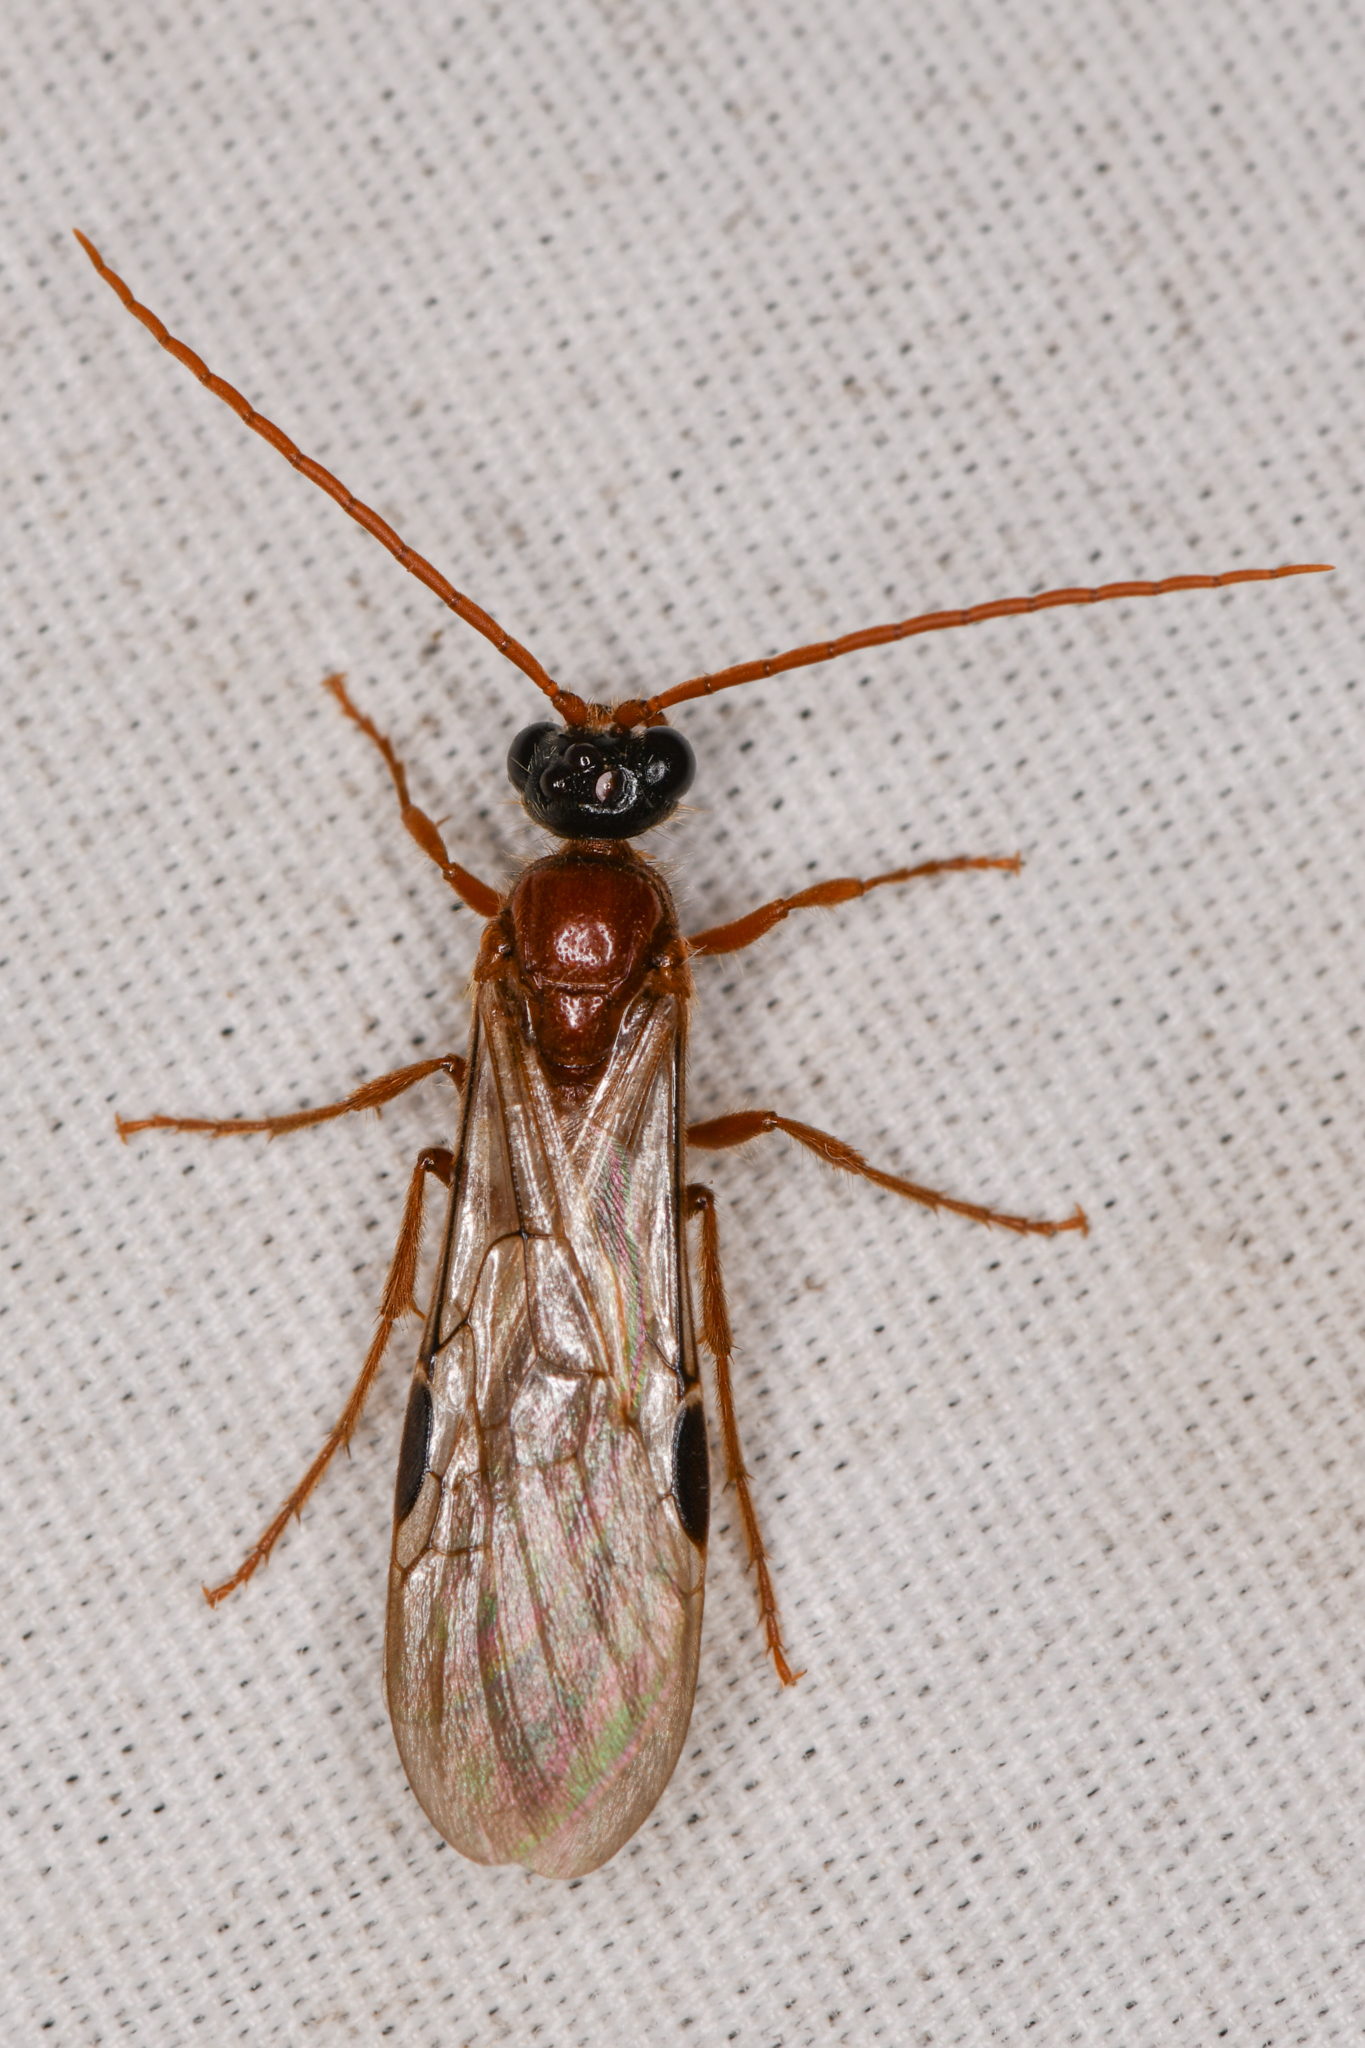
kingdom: Animalia
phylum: Arthropoda
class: Insecta
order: Hymenoptera
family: Tiphiidae
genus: Brachycistis
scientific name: Brachycistis
